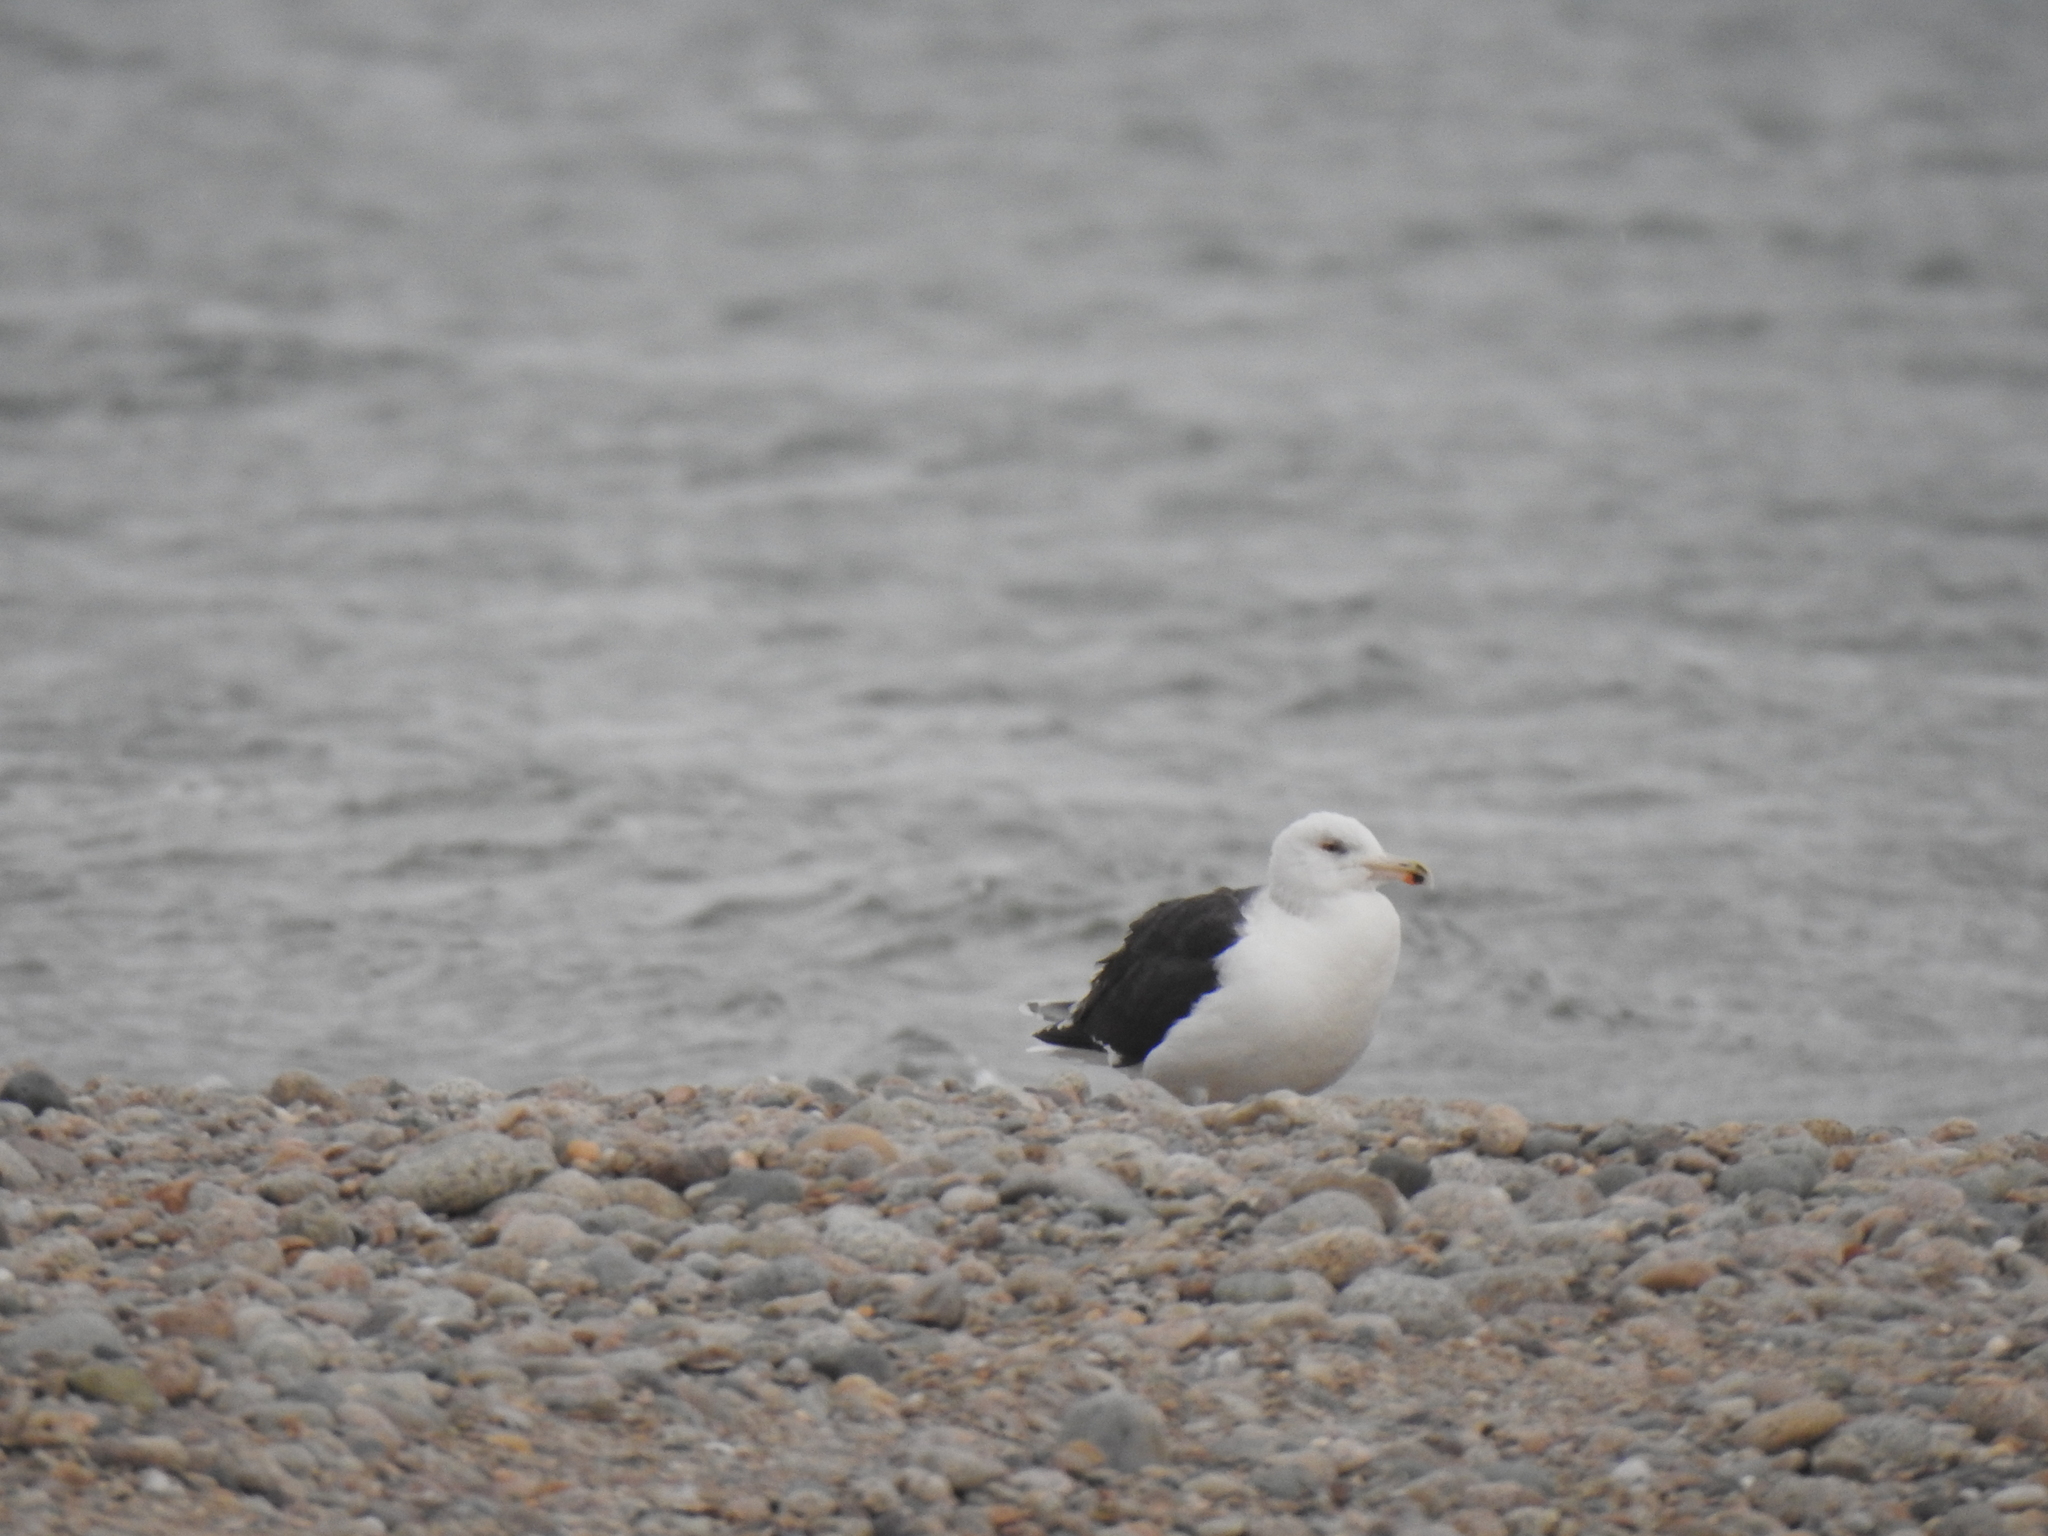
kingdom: Animalia
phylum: Chordata
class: Aves
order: Charadriiformes
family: Laridae
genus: Larus
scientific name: Larus marinus
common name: Great black-backed gull
